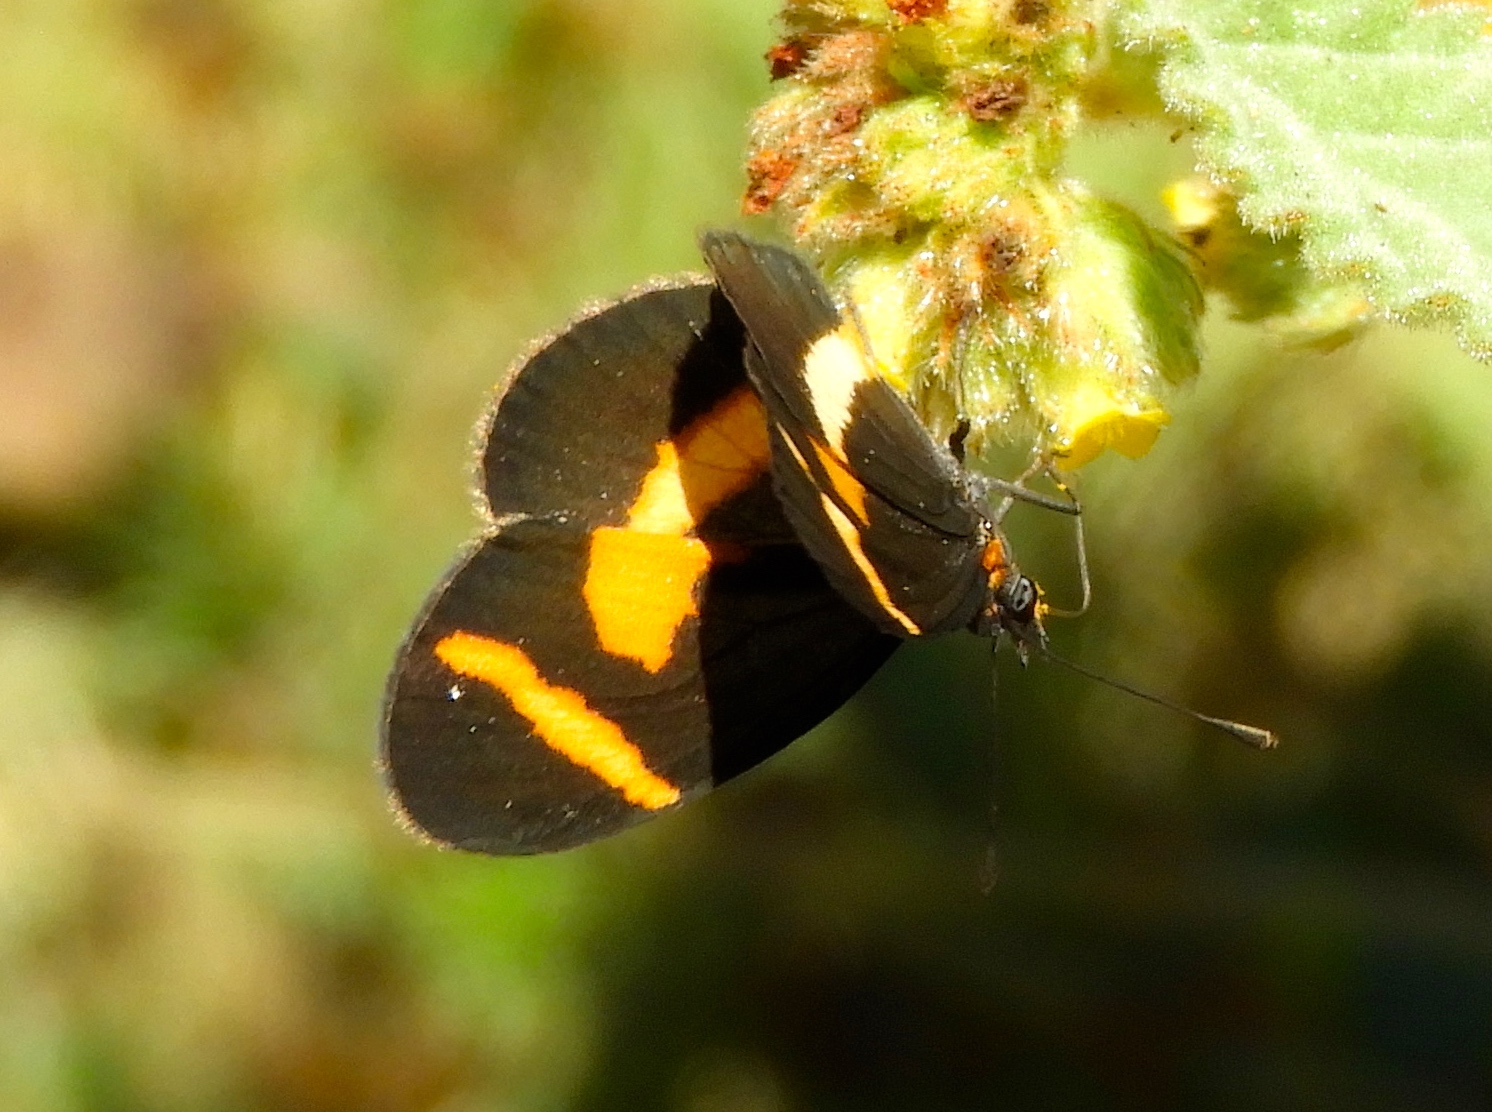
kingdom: Animalia
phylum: Arthropoda
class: Insecta
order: Lepidoptera
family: Nymphalidae
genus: Microtia
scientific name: Microtia elva
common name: Elf
